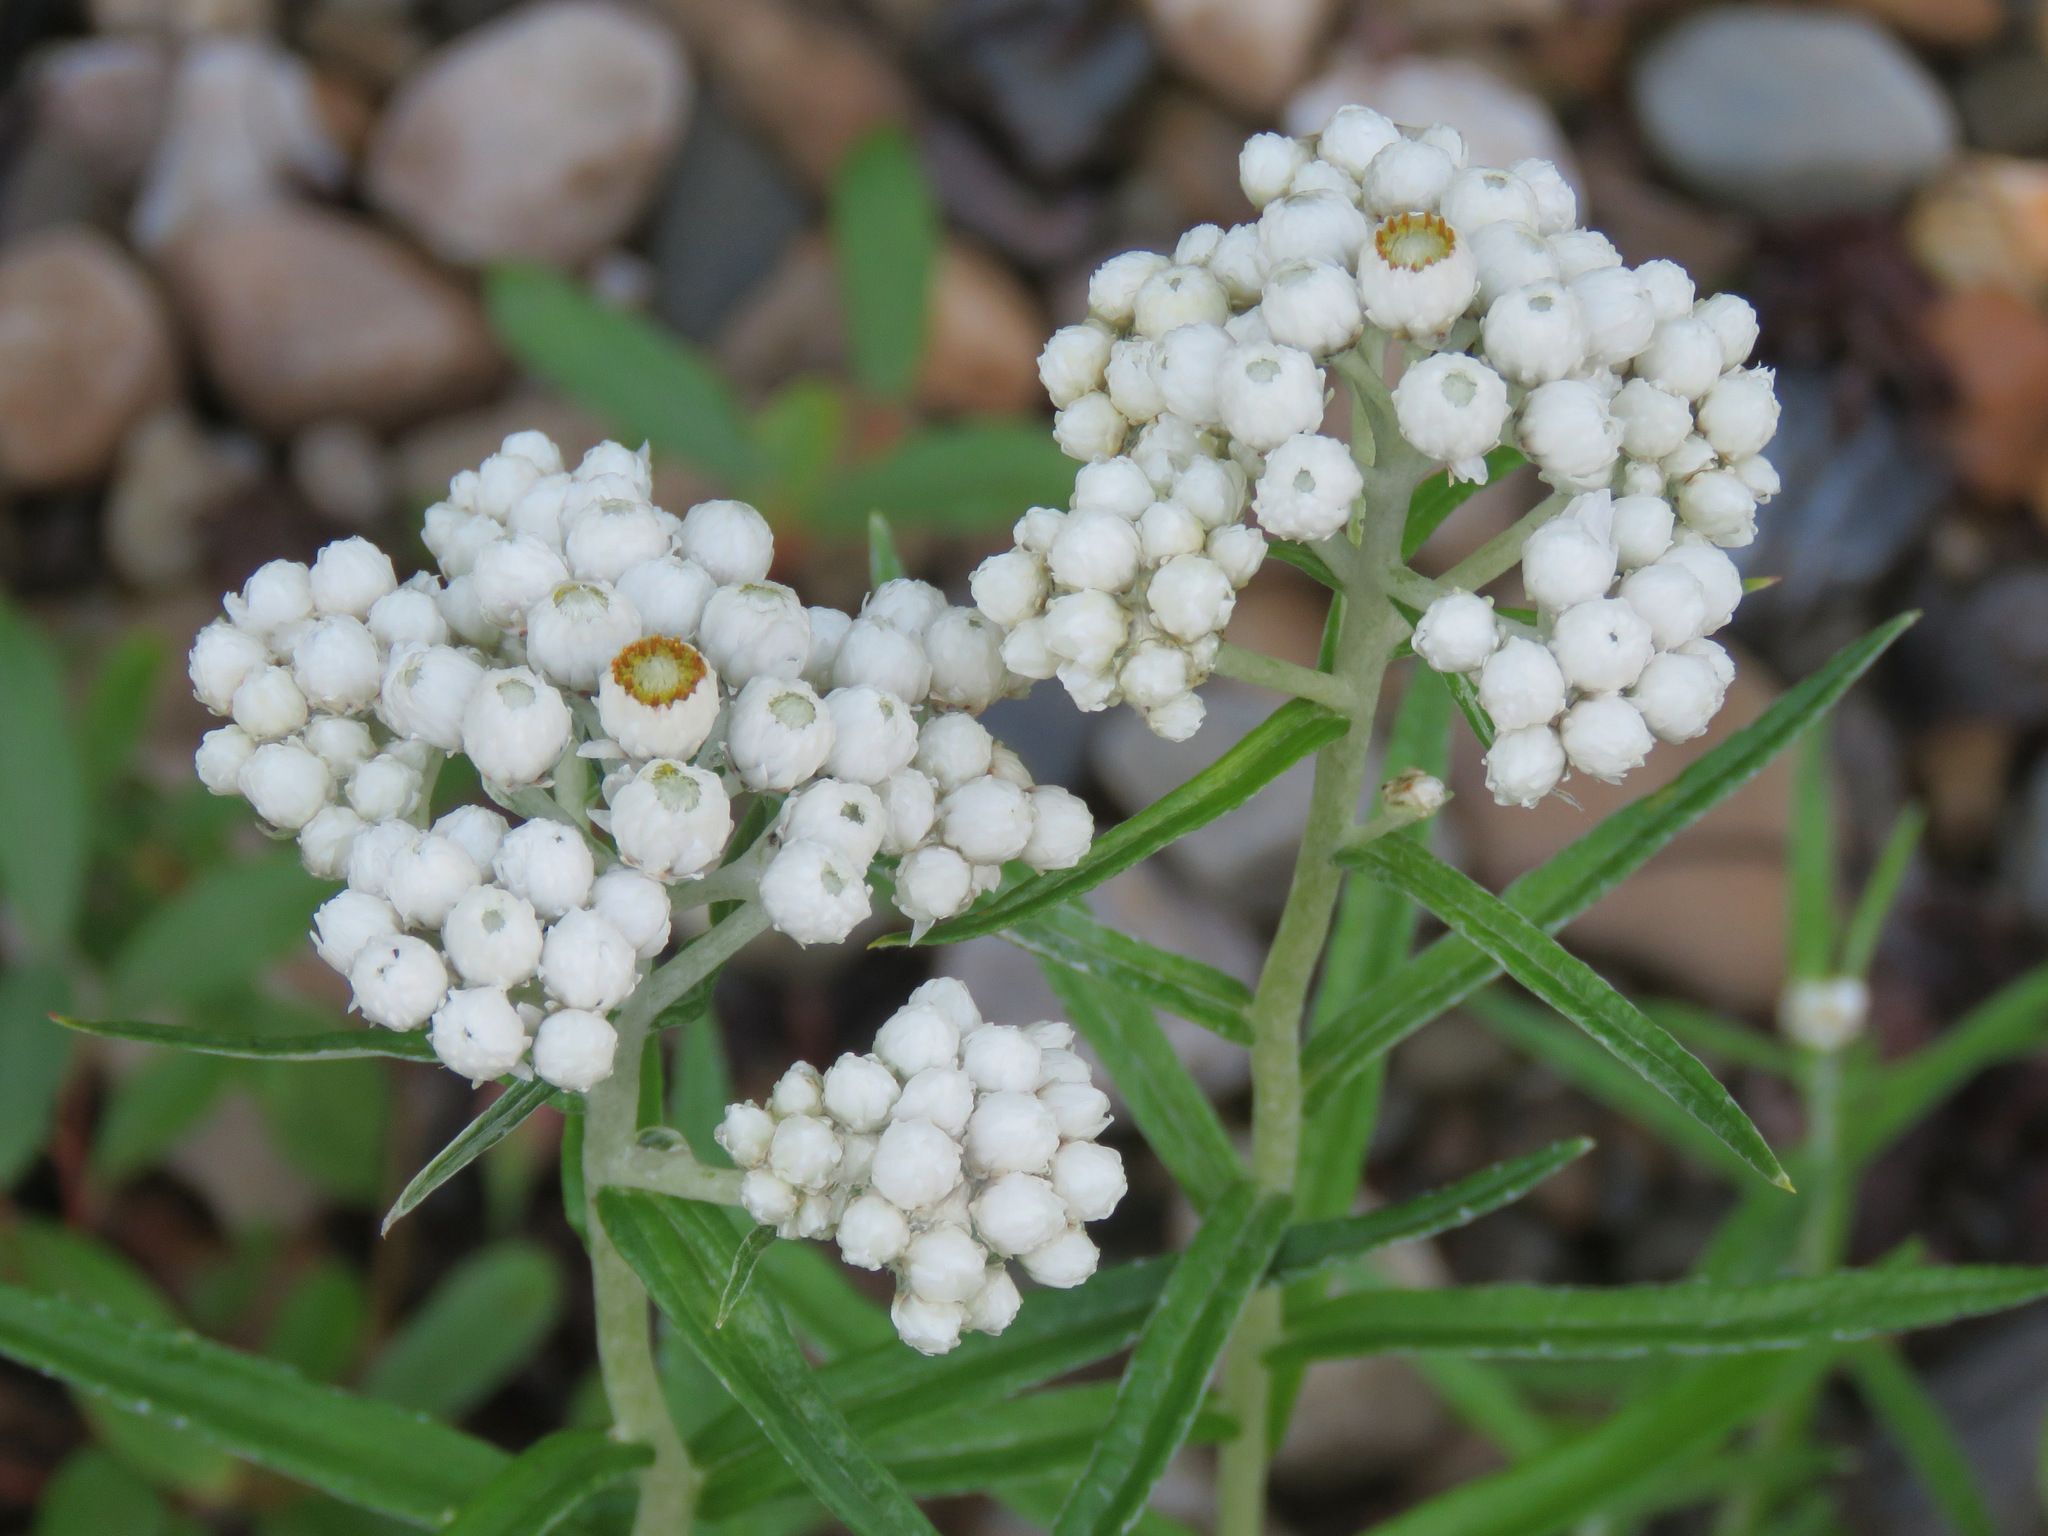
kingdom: Plantae
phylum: Tracheophyta
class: Magnoliopsida
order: Asterales
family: Asteraceae
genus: Anaphalis
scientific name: Anaphalis margaritacea
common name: Pearly everlasting
